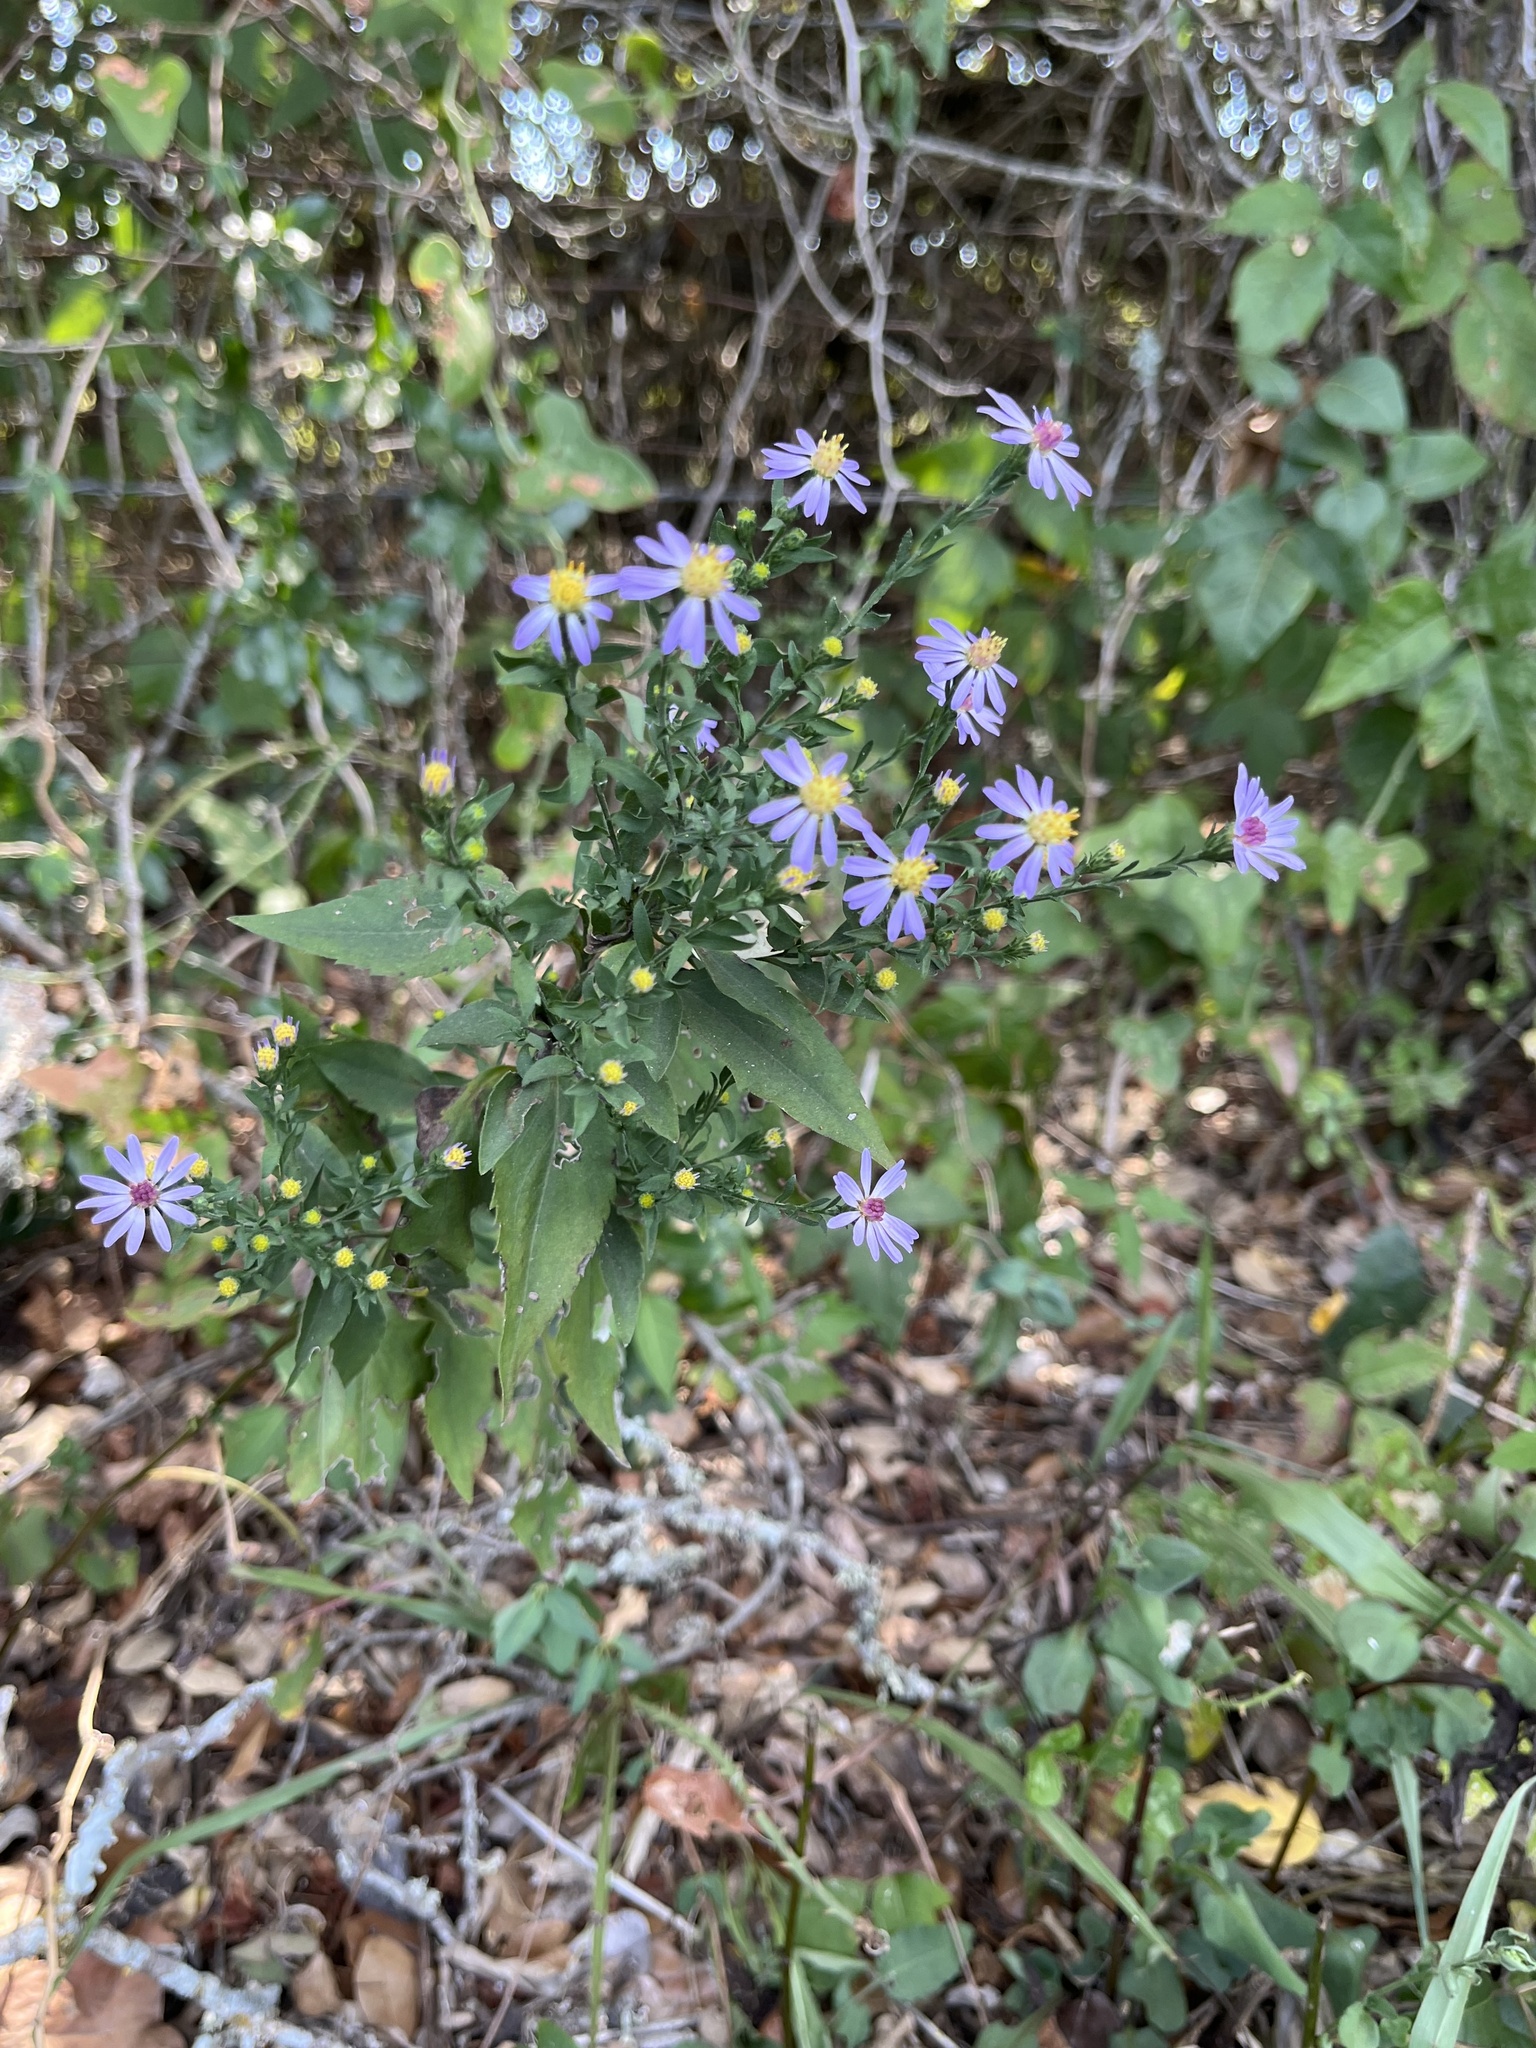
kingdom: Plantae
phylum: Tracheophyta
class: Magnoliopsida
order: Asterales
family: Asteraceae
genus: Symphyotrichum
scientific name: Symphyotrichum drummondii
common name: Drummond's aster
